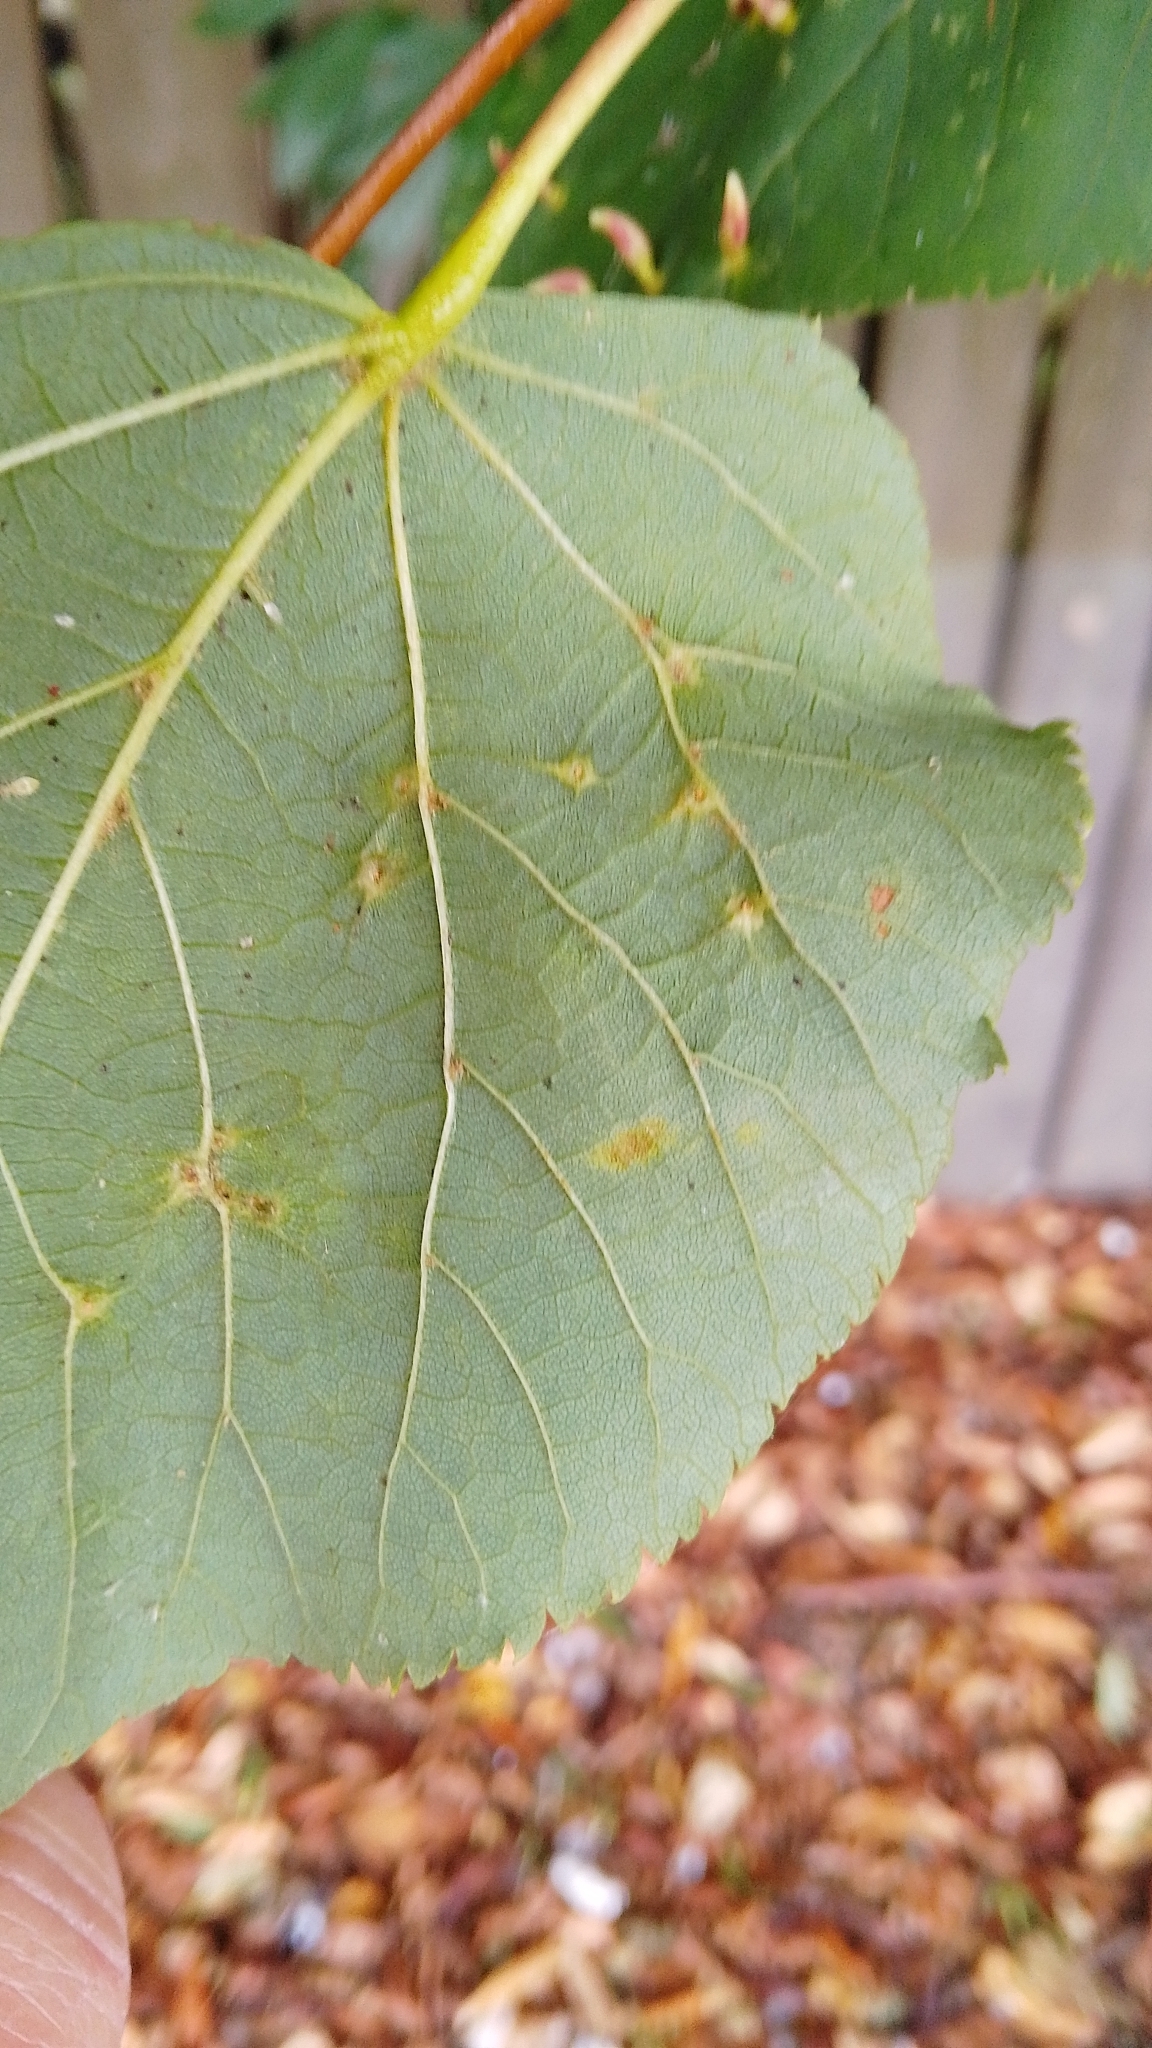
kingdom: Animalia
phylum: Arthropoda
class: Arachnida
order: Trombidiformes
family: Eriophyidae
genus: Eriophyes
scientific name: Eriophyes tiliae
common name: Red nail gall mite
